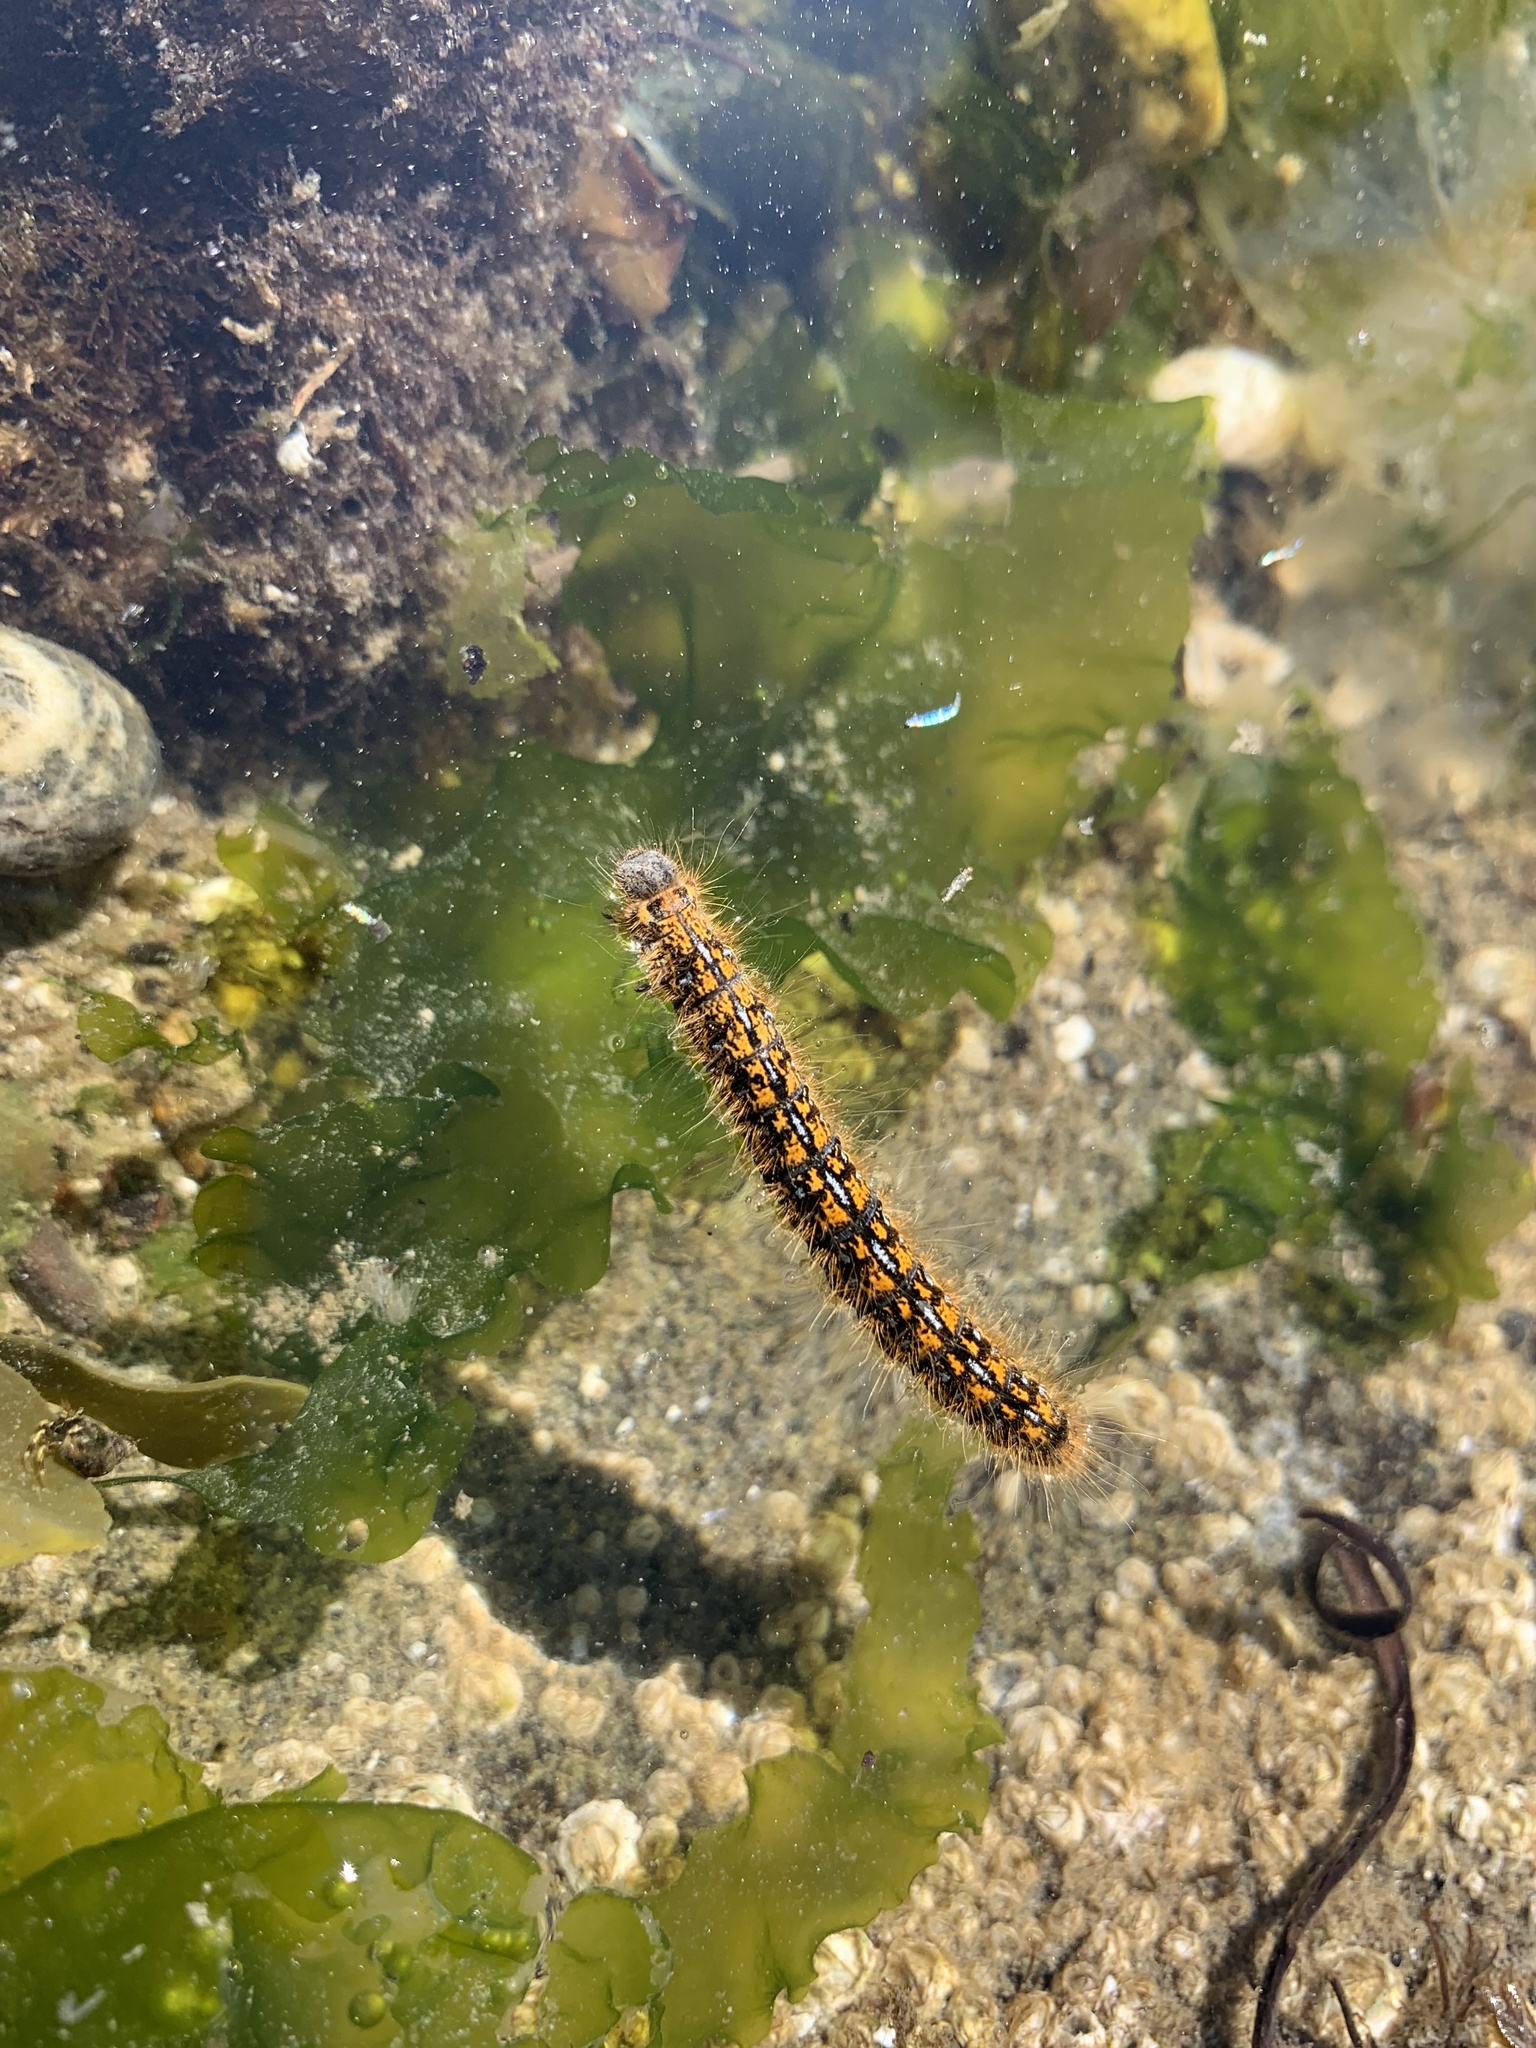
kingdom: Animalia
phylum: Arthropoda
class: Insecta
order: Lepidoptera
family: Lasiocampidae
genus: Malacosoma
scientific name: Malacosoma californica
